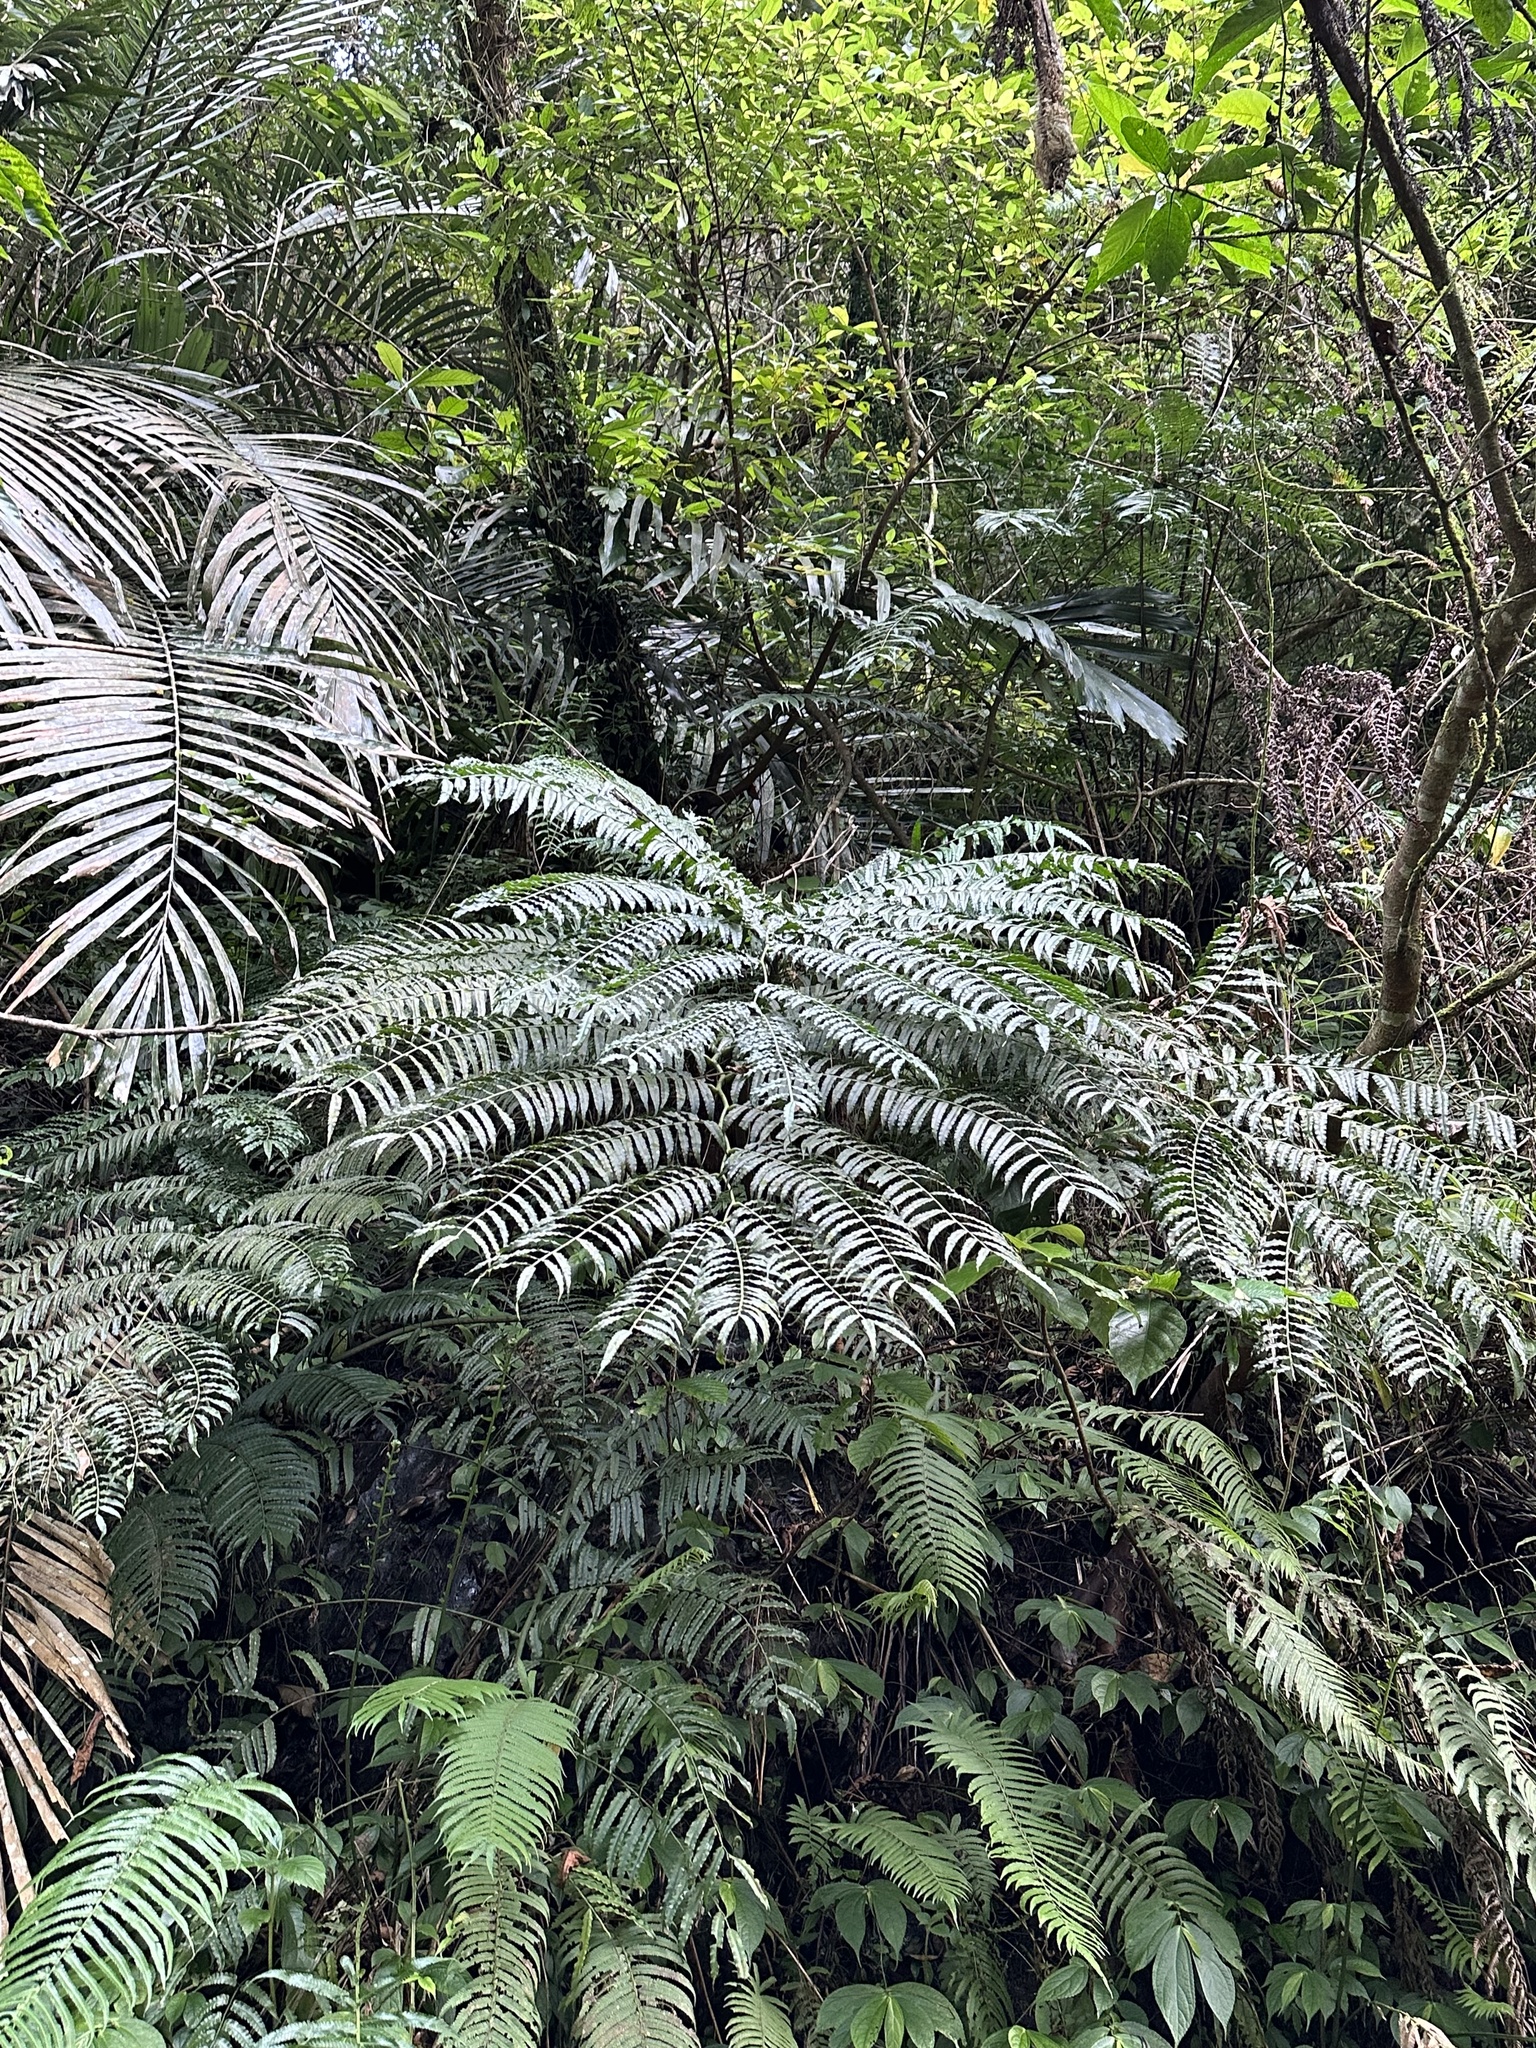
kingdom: Plantae
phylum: Tracheophyta
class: Polypodiopsida
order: Marattiales
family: Marattiaceae
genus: Angiopteris
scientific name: Angiopteris lygodiifolia
